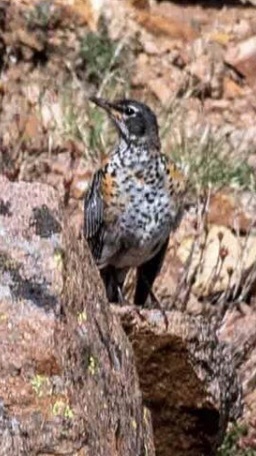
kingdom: Animalia
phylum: Chordata
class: Aves
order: Passeriformes
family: Turdidae
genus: Turdus
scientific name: Turdus migratorius
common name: American robin
